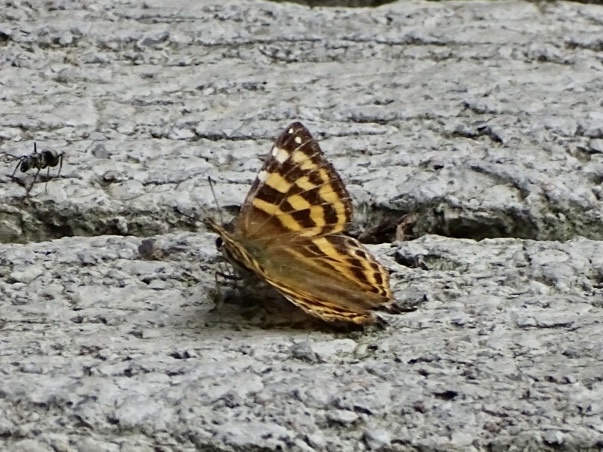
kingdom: Animalia
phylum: Arthropoda
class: Insecta
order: Lepidoptera
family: Lycaenidae
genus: Dodona
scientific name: Dodona egeon
